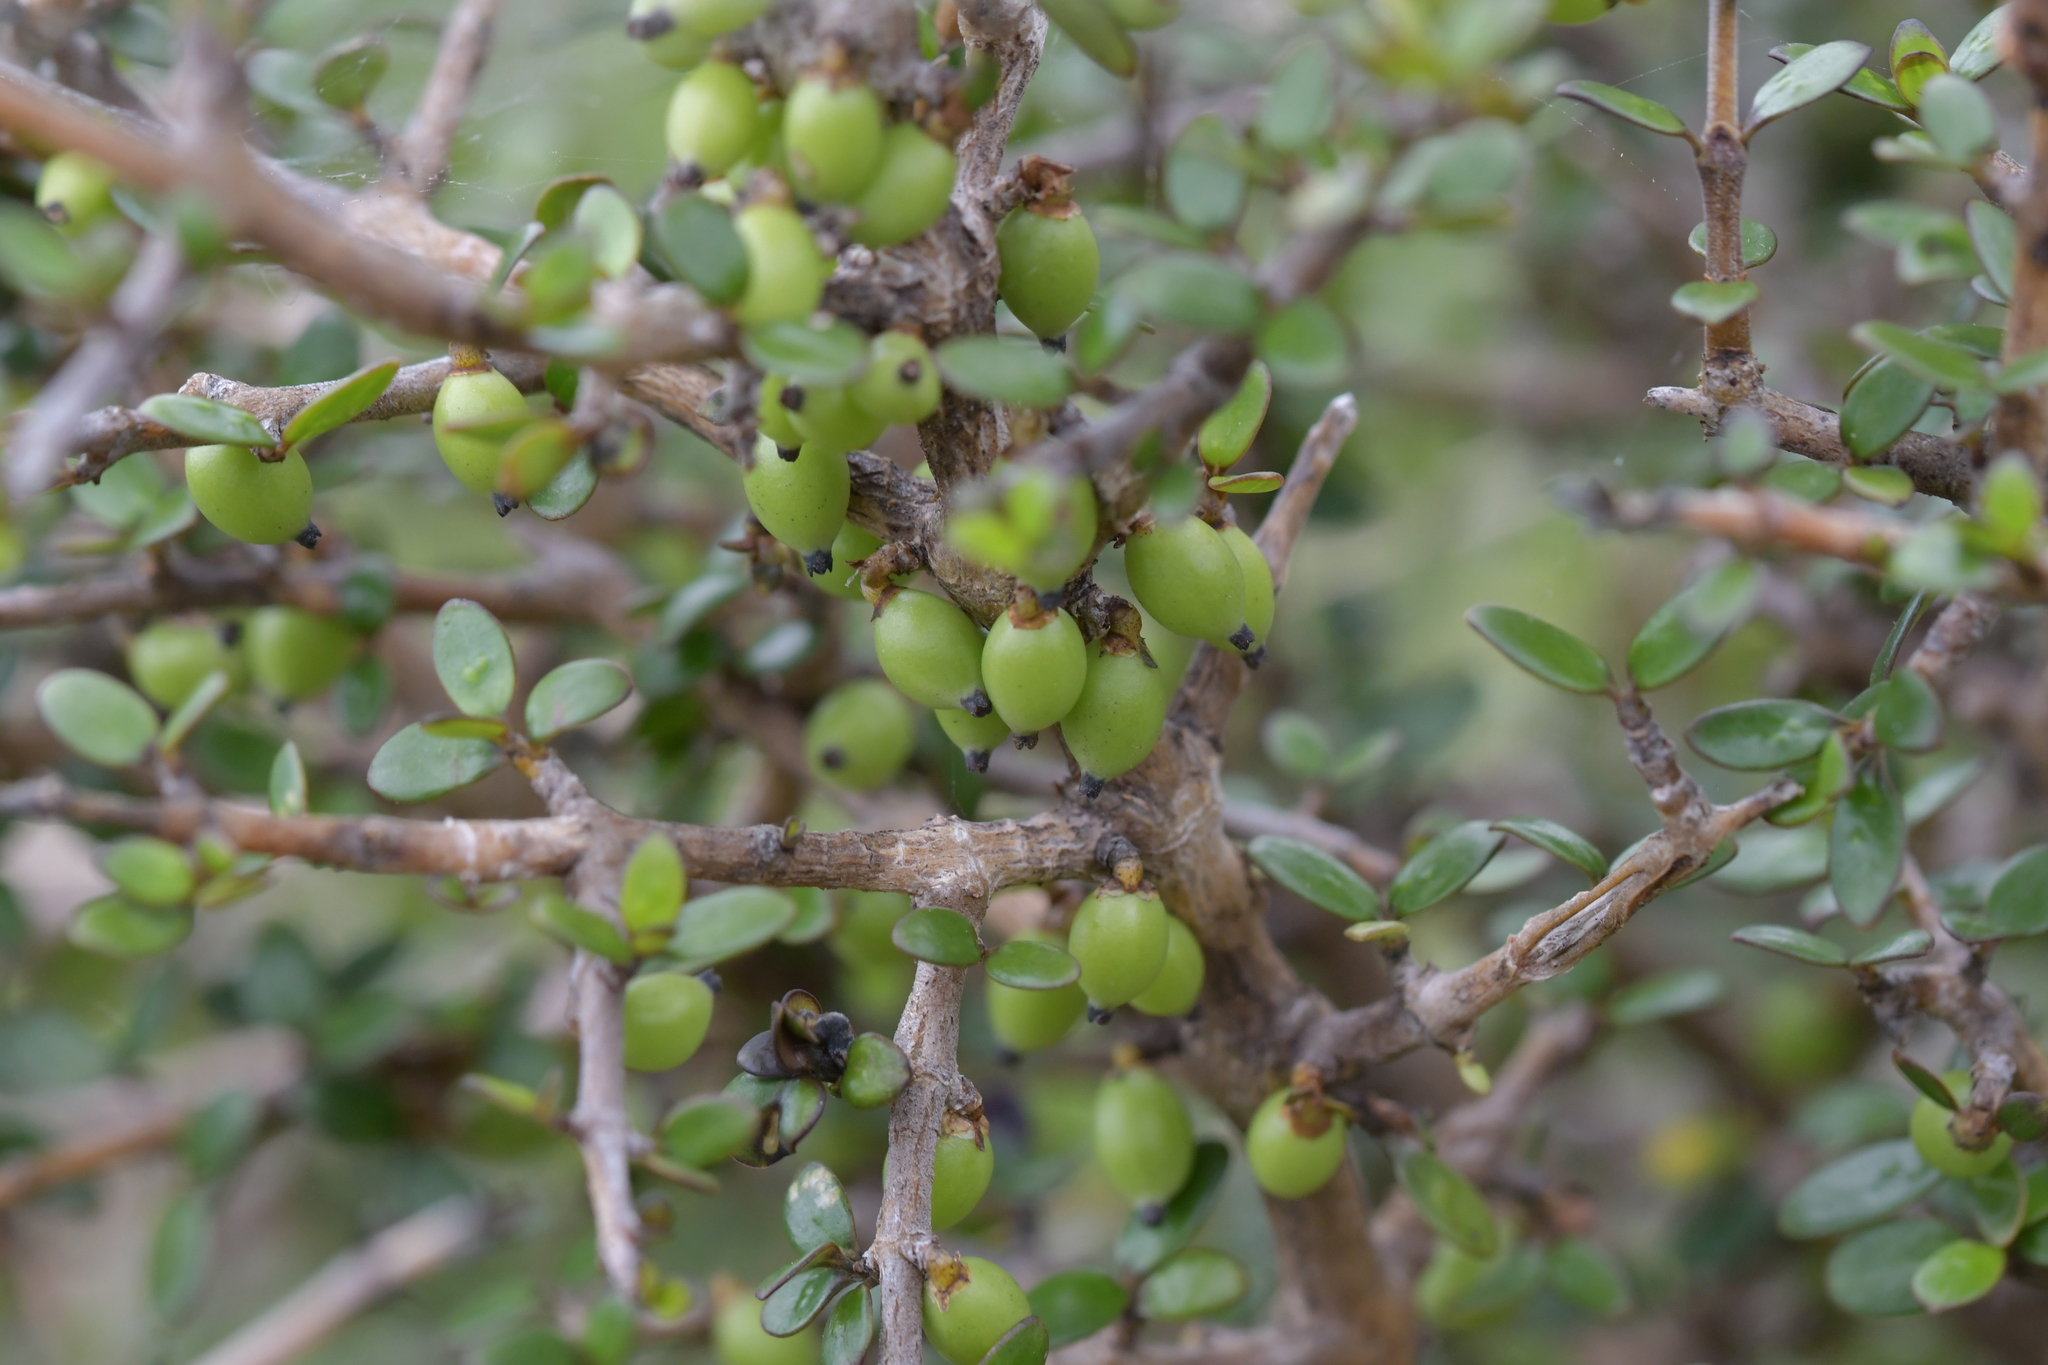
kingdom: Plantae
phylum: Tracheophyta
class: Magnoliopsida
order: Gentianales
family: Rubiaceae
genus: Coprosma
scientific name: Coprosma propinqua
